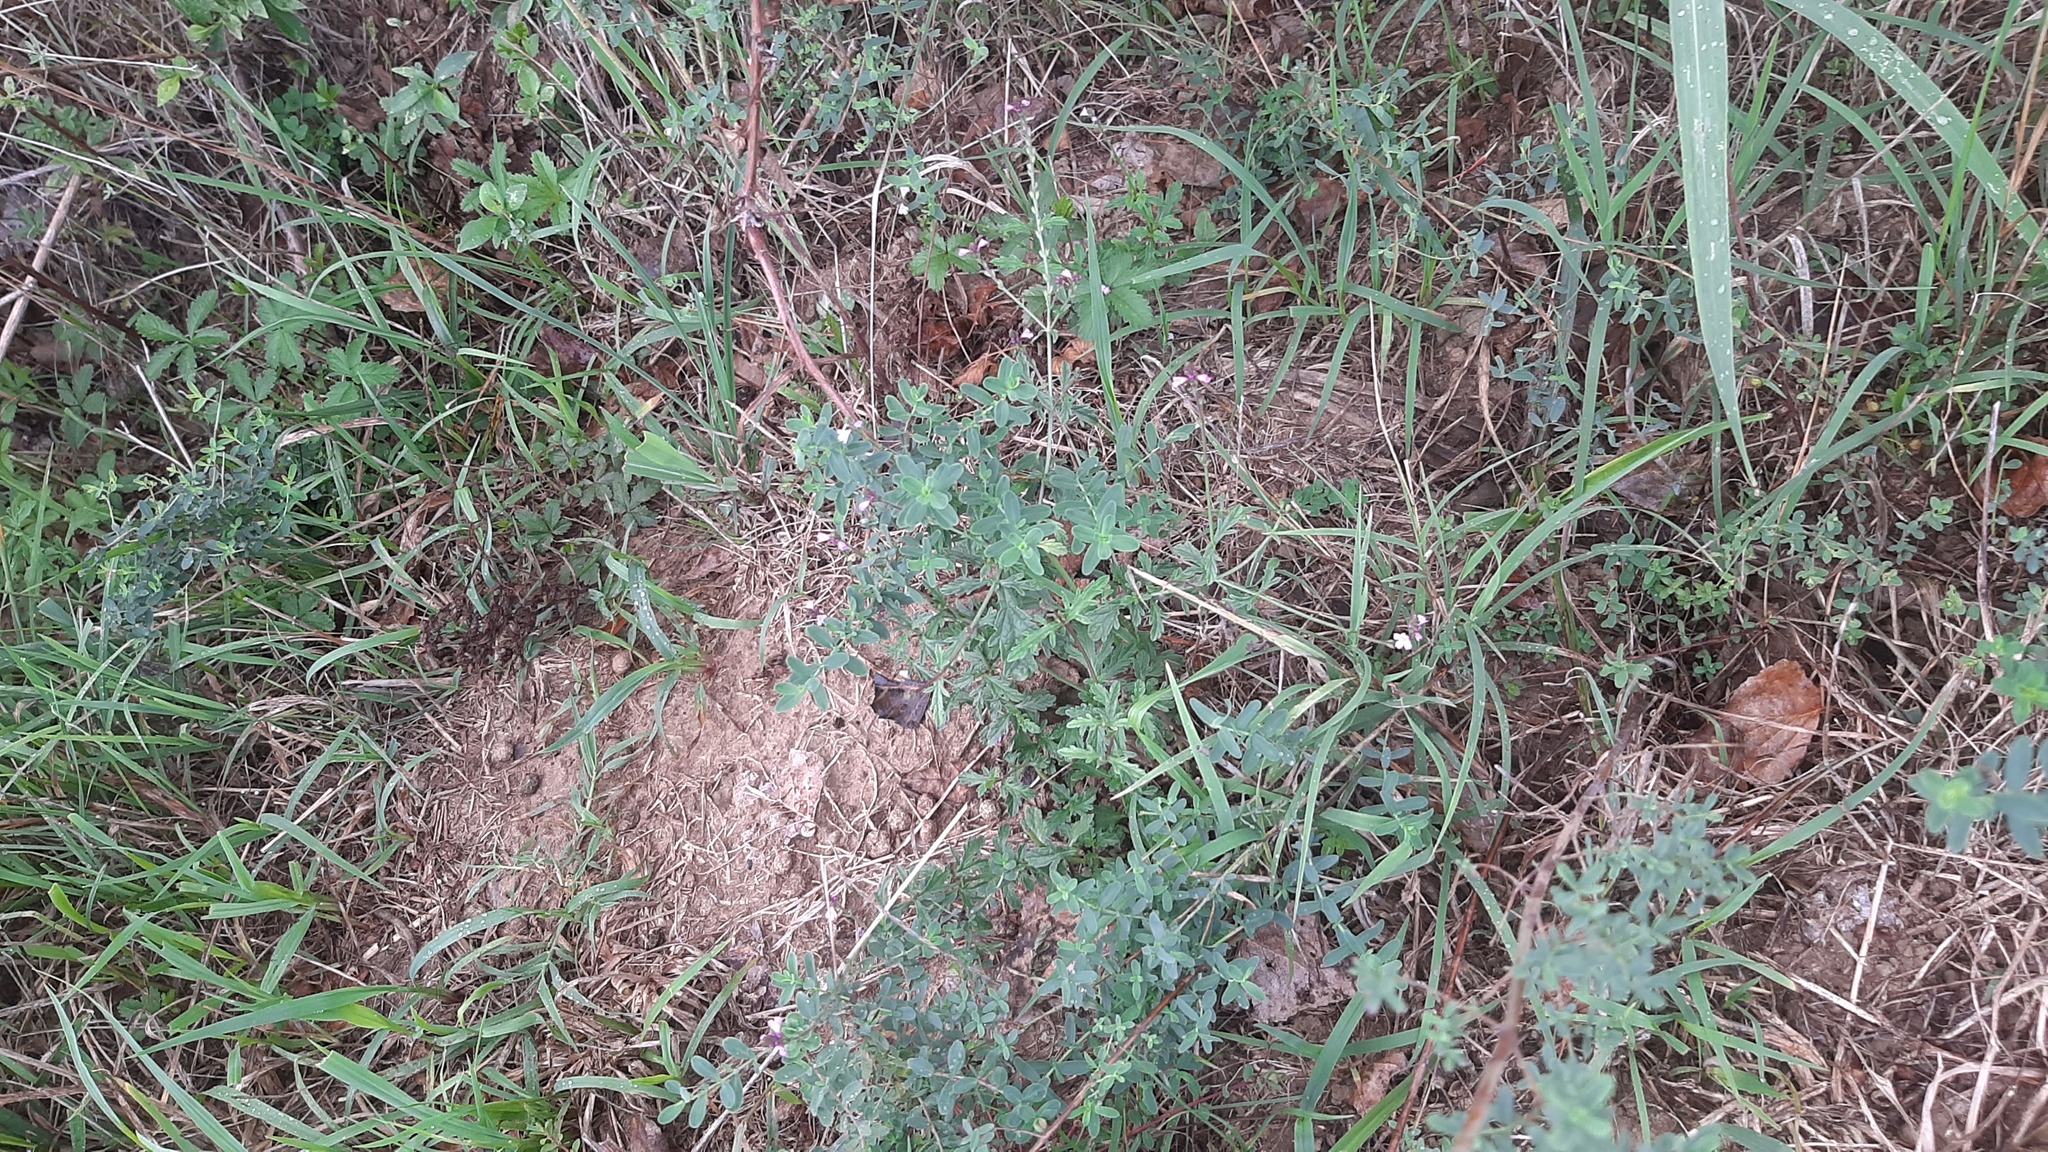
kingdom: Plantae
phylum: Tracheophyta
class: Magnoliopsida
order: Lamiales
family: Verbenaceae
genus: Verbena
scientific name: Verbena officinalis
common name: Vervain
